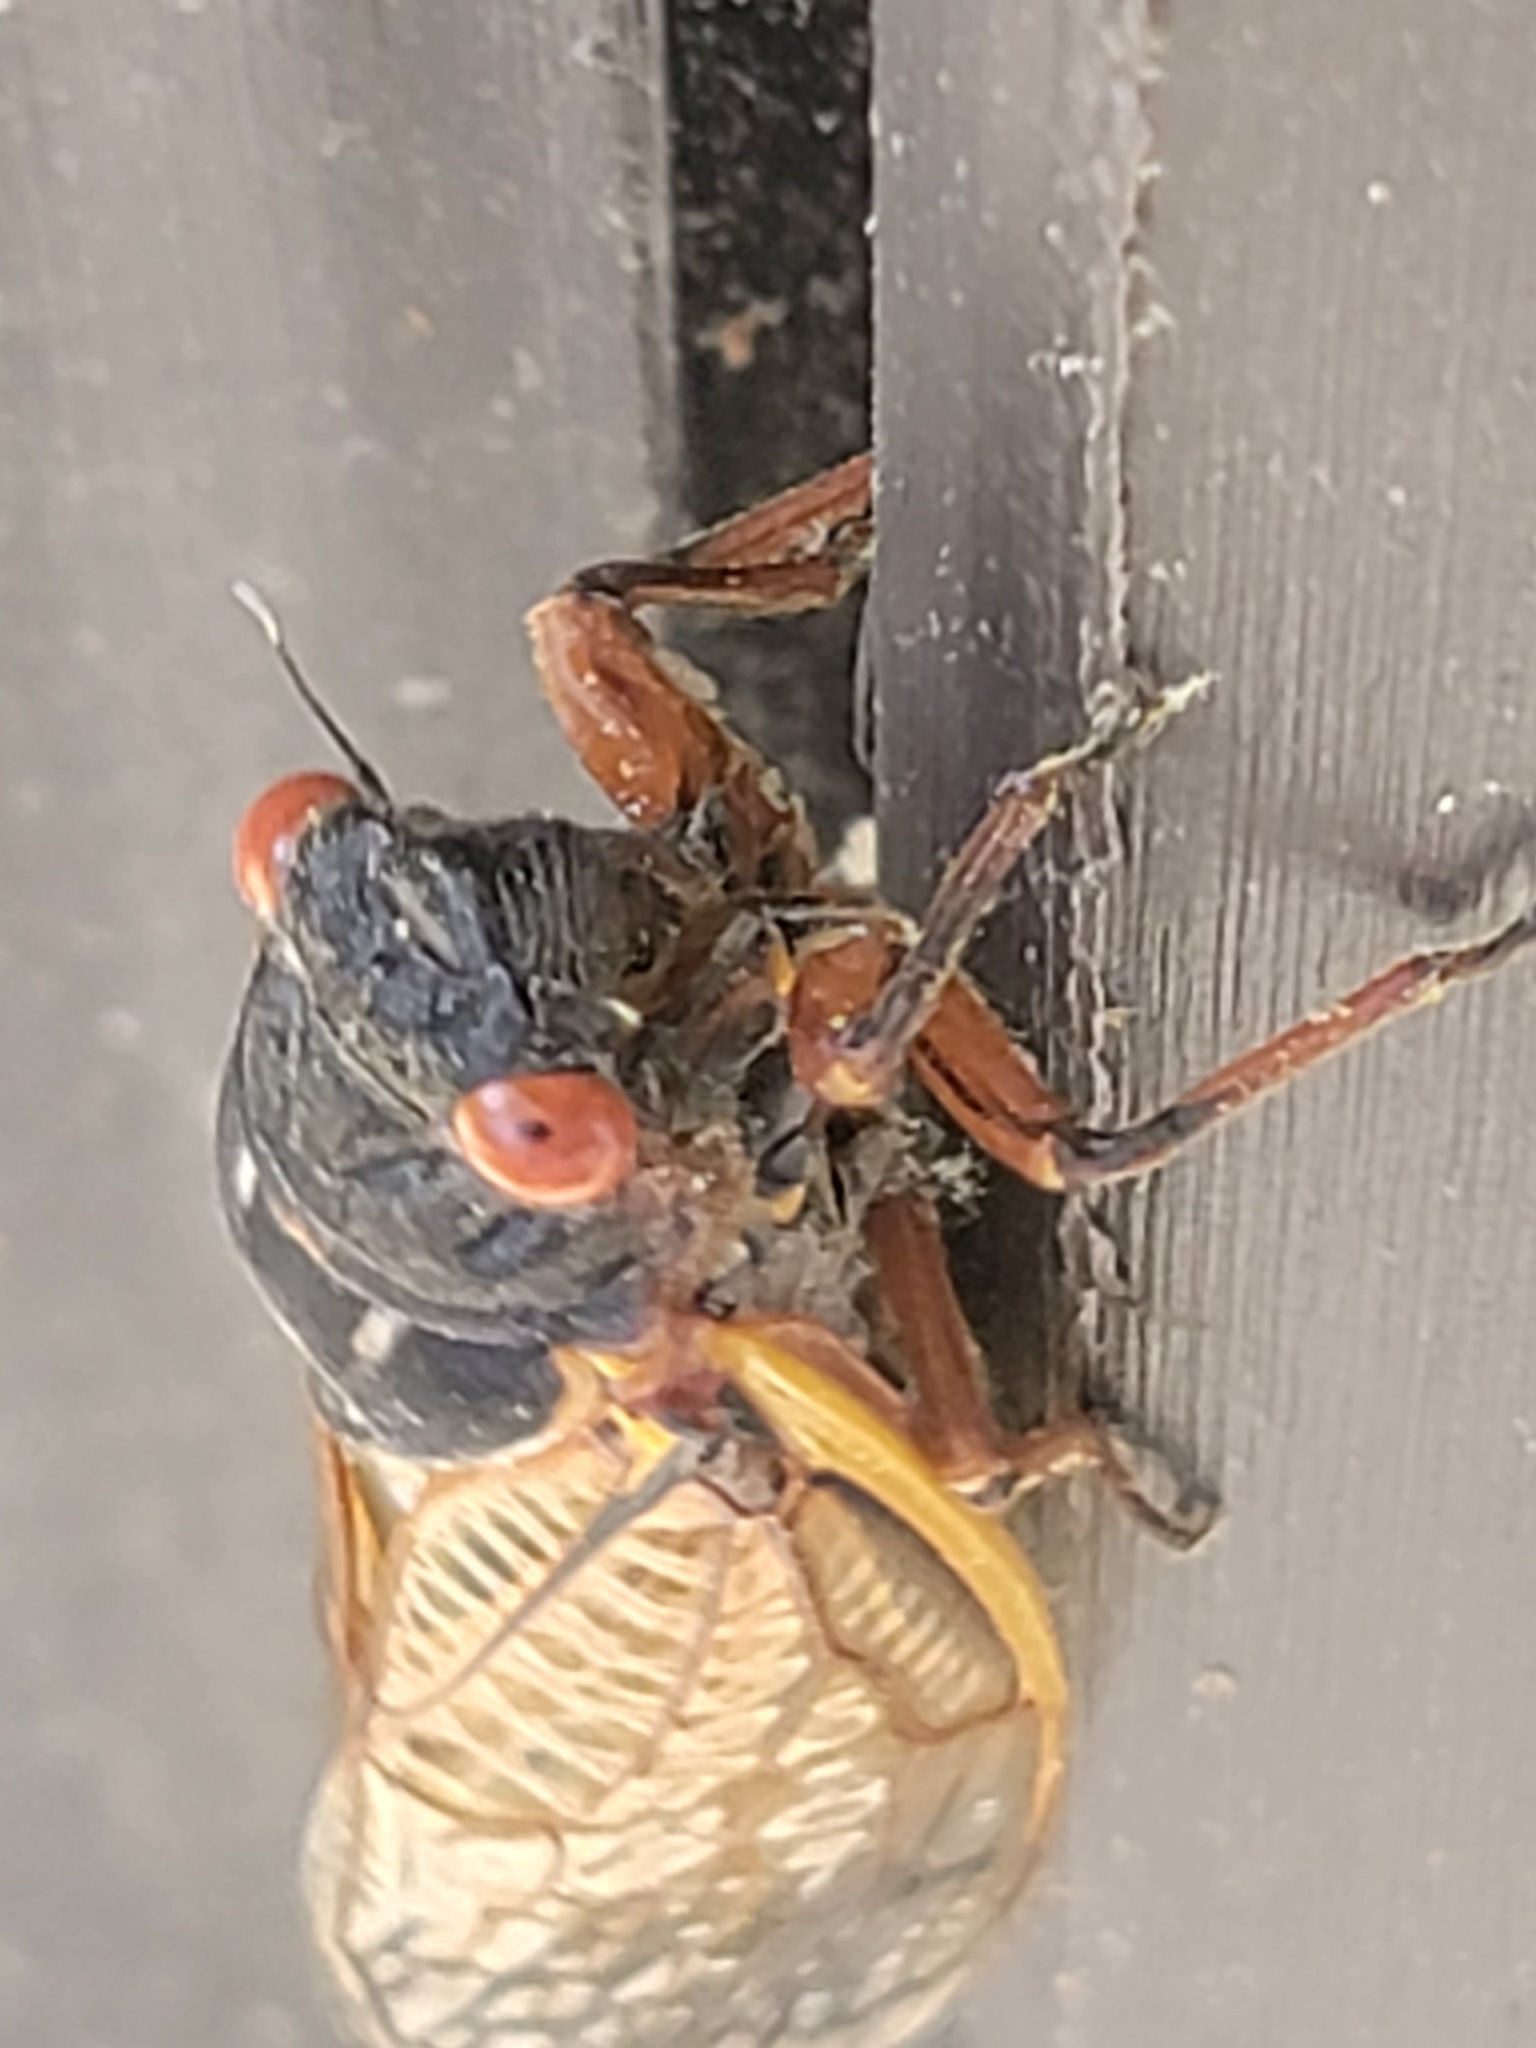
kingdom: Animalia
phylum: Arthropoda
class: Insecta
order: Hemiptera
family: Cicadidae
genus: Magicicada
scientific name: Magicicada
